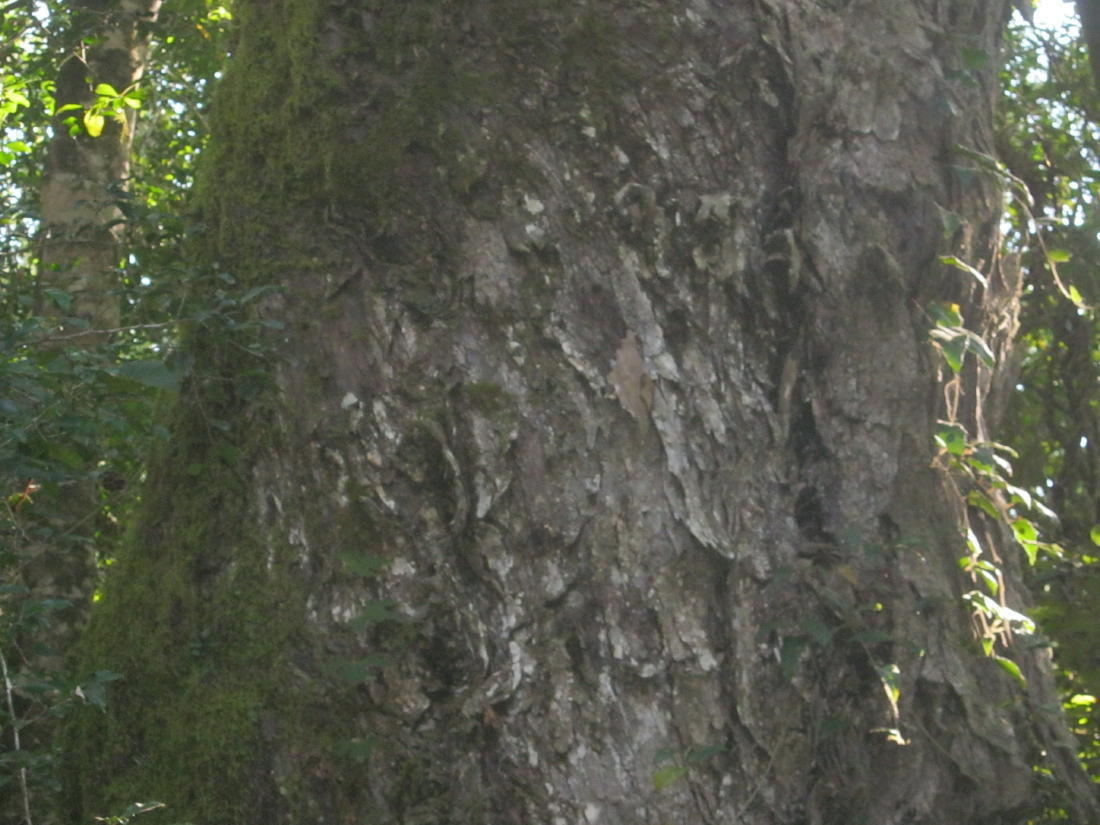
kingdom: Plantae
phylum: Tracheophyta
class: Pinopsida
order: Pinales
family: Podocarpaceae
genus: Afrocarpus
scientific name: Afrocarpus falcatus
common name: Bastard yellowwood
